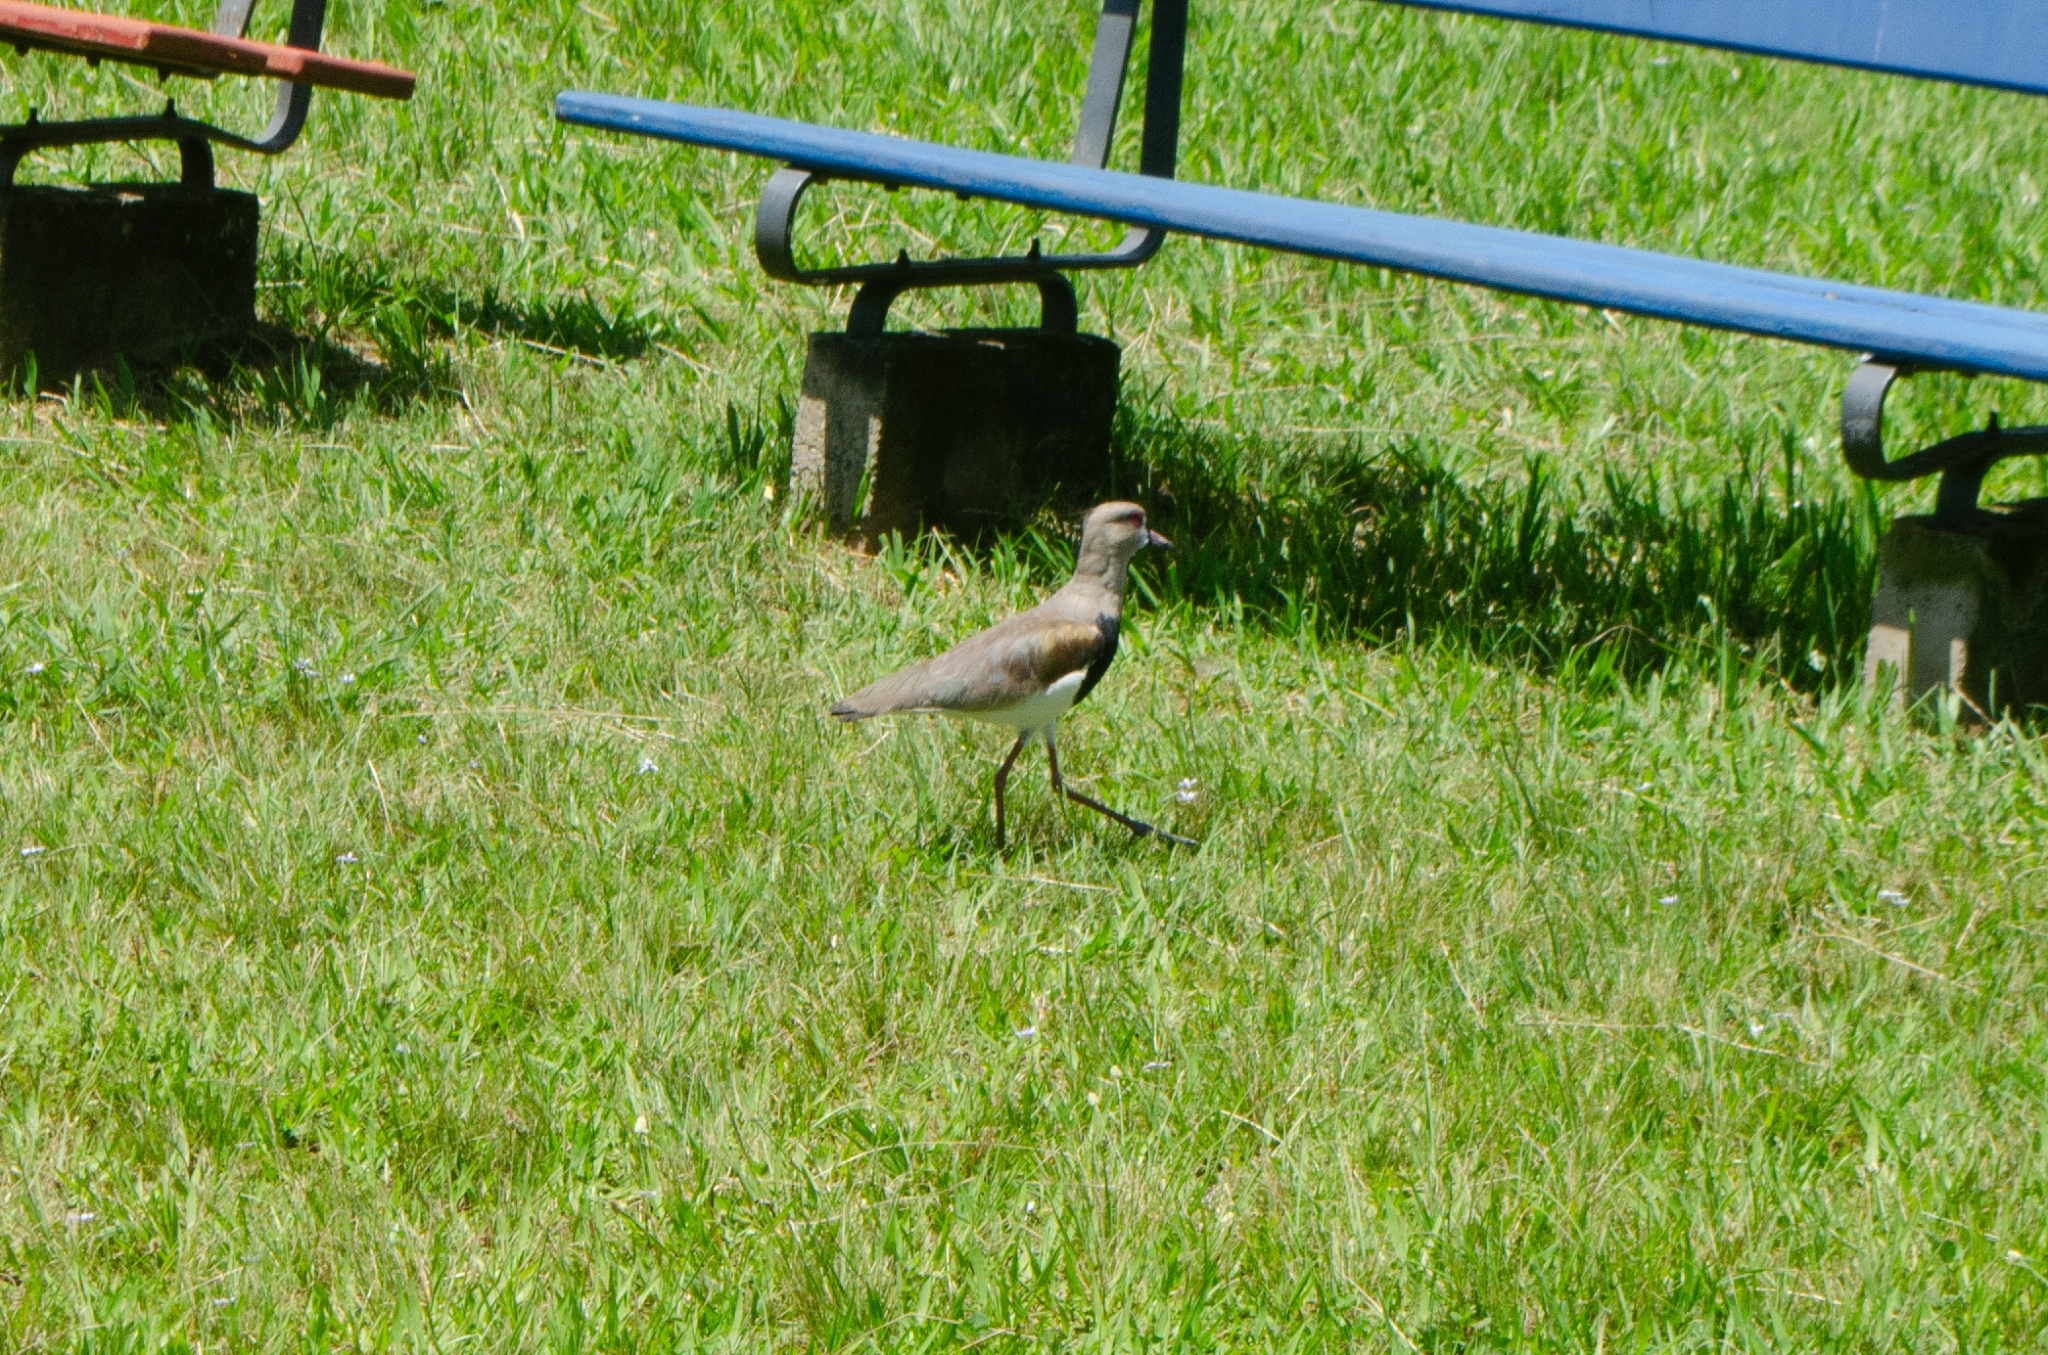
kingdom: Animalia
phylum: Chordata
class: Aves
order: Charadriiformes
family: Charadriidae
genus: Vanellus
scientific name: Vanellus chilensis
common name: Southern lapwing
